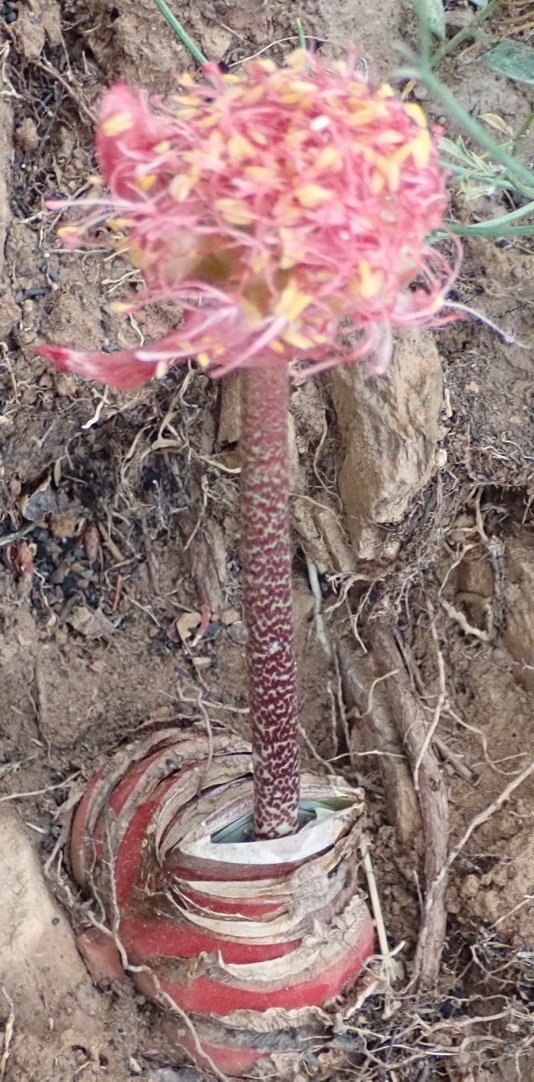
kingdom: Plantae
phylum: Tracheophyta
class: Liliopsida
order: Asparagales
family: Amaryllidaceae
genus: Haemanthus
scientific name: Haemanthus coccineus
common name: Cape-tulip
